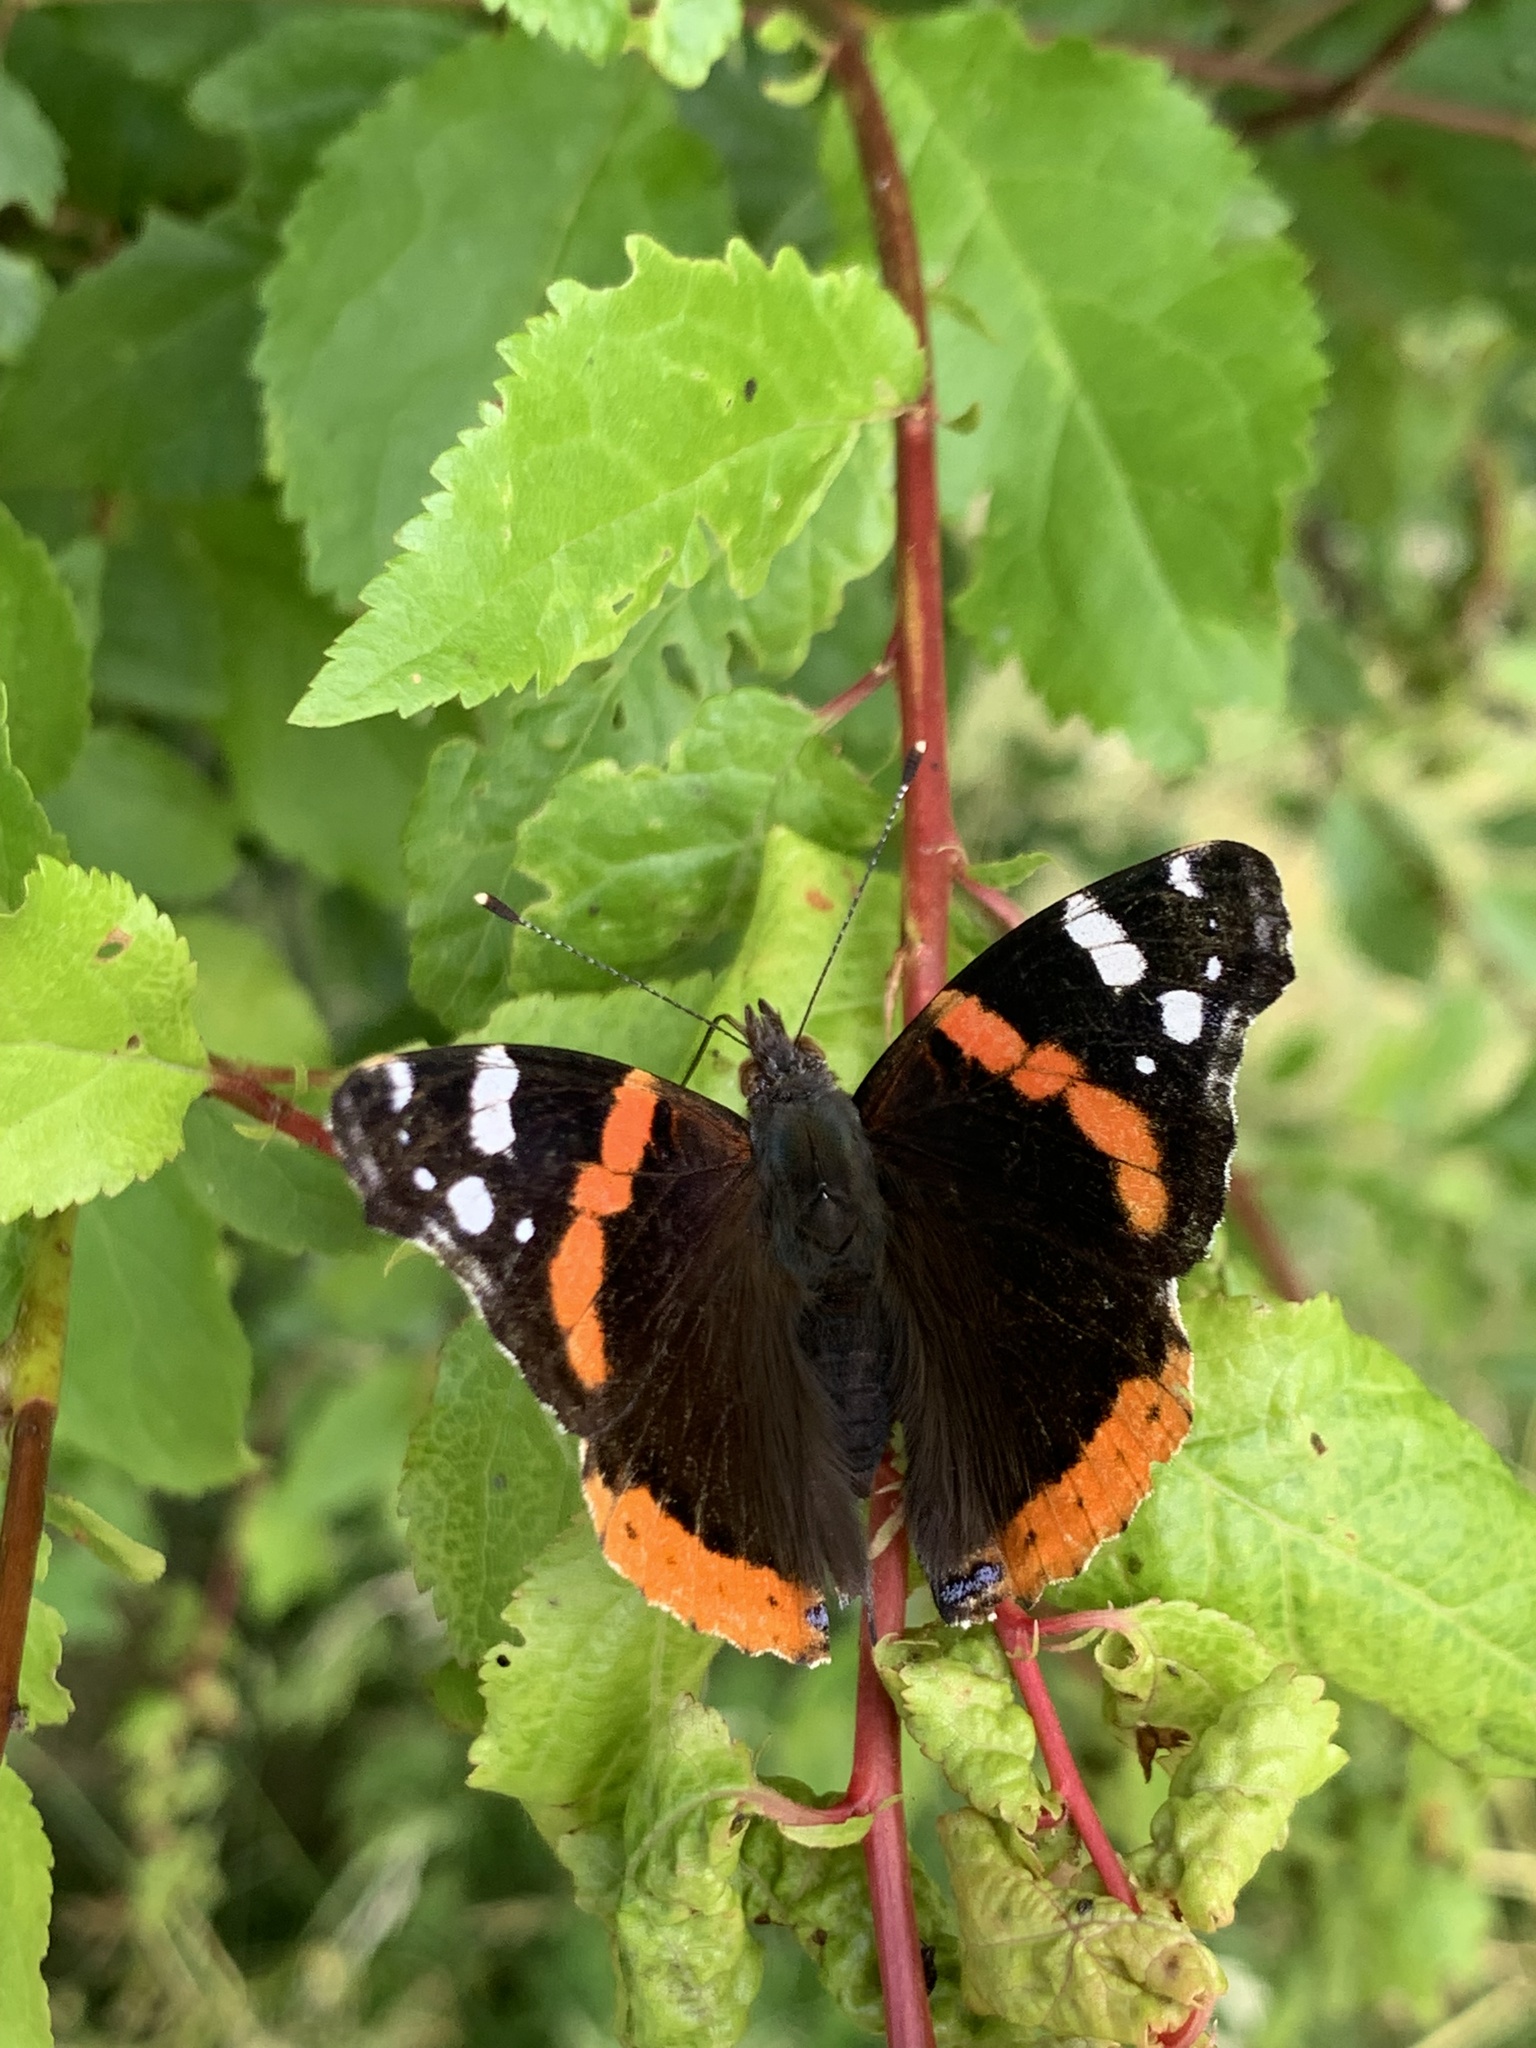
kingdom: Animalia
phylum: Arthropoda
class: Insecta
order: Lepidoptera
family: Nymphalidae
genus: Vanessa
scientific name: Vanessa atalanta
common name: Red admiral
